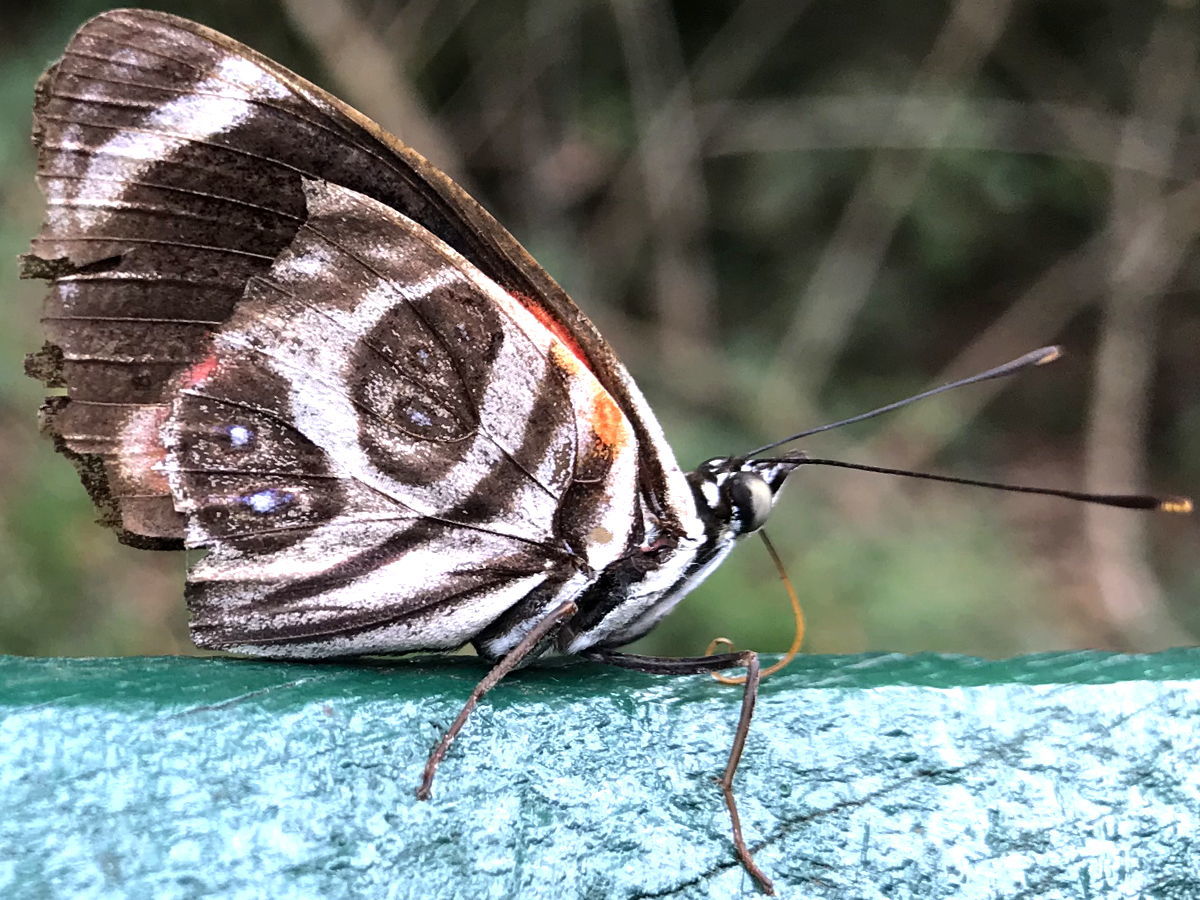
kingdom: Animalia
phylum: Arthropoda
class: Insecta
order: Lepidoptera
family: Nymphalidae
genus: Catagramma
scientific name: Catagramma pygas
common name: Godart's numberwing
